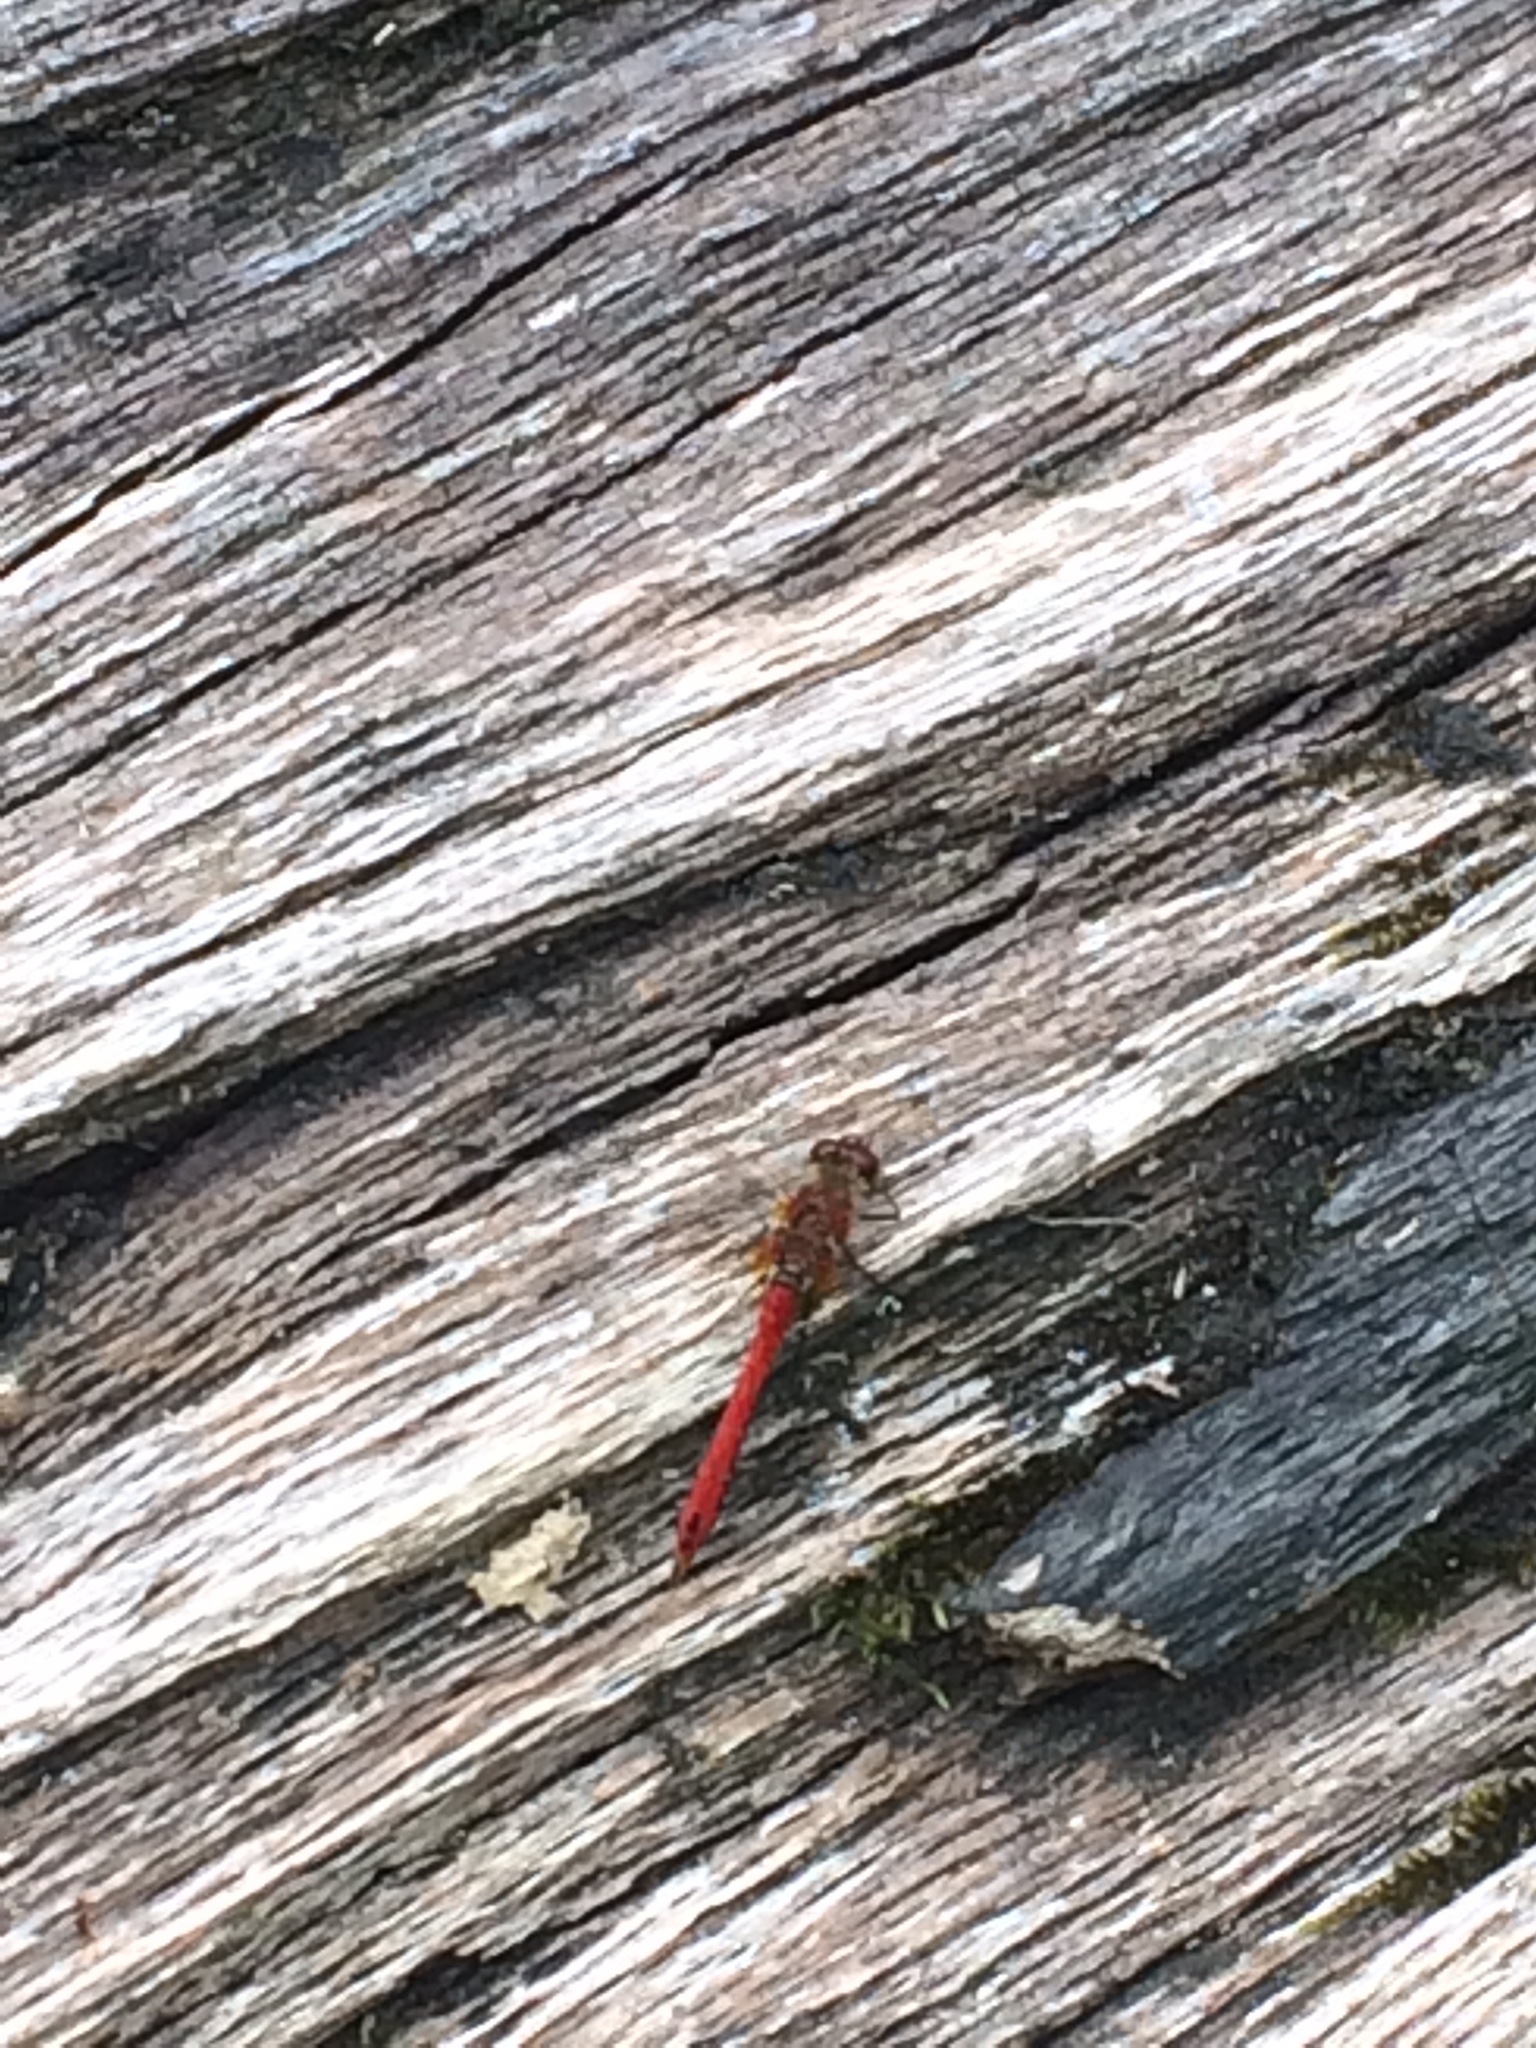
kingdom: Animalia
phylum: Arthropoda
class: Insecta
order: Odonata
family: Libellulidae
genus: Sympetrum
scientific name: Sympetrum sanguineum
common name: Ruddy darter
